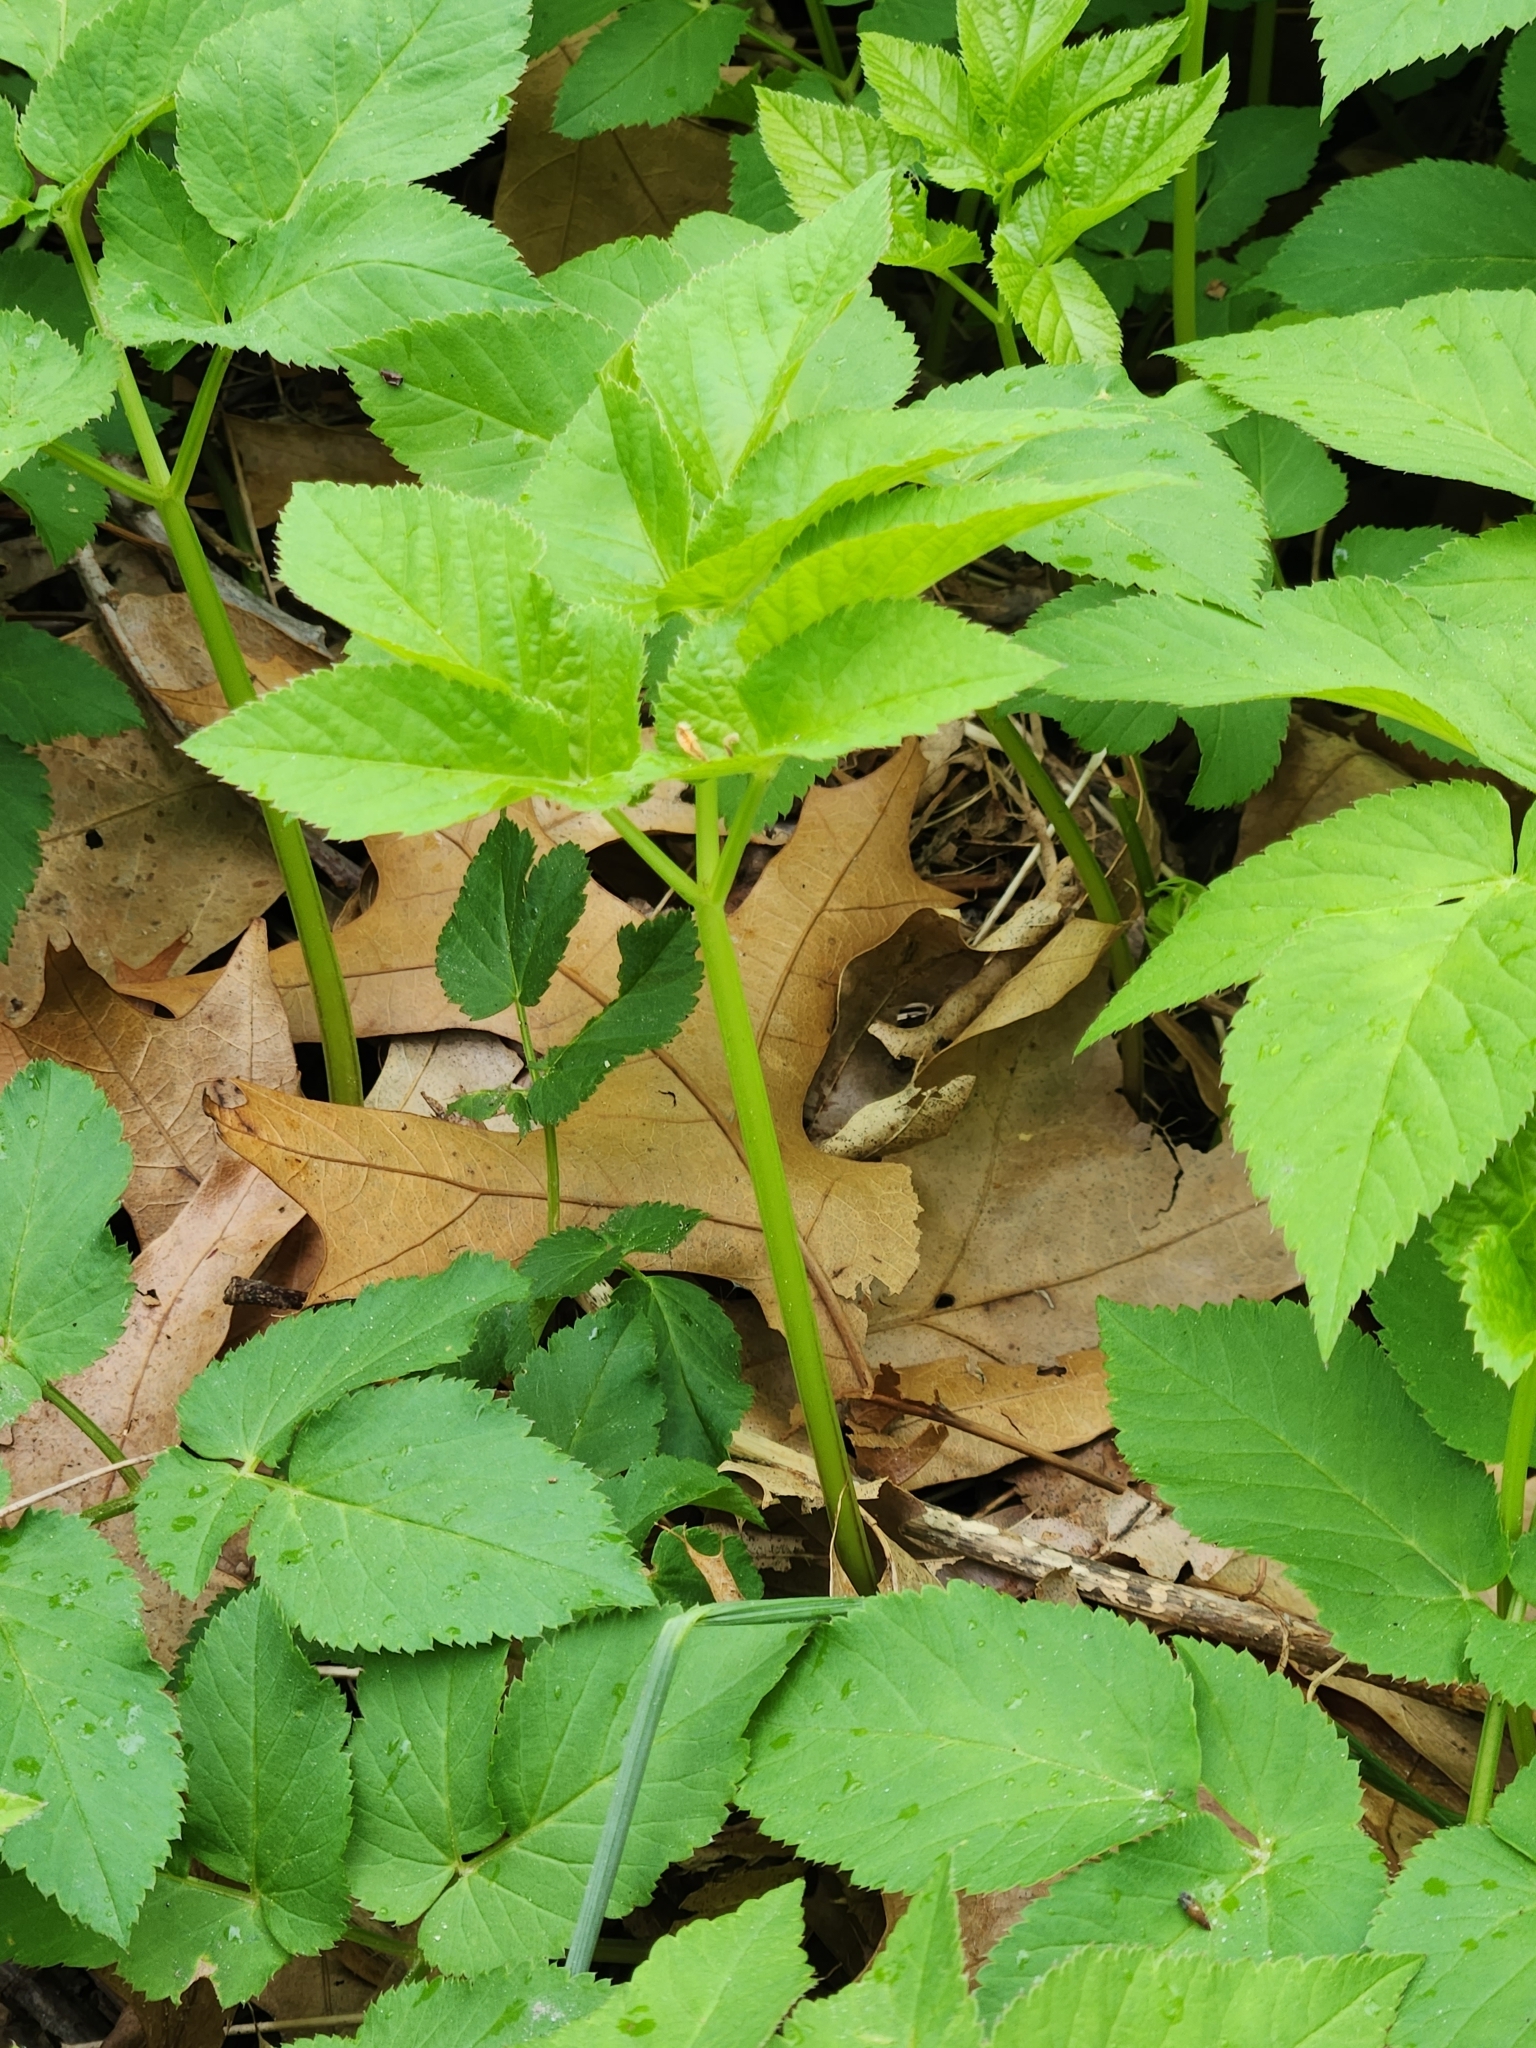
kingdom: Plantae
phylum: Tracheophyta
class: Magnoliopsida
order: Apiales
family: Apiaceae
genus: Aegopodium
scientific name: Aegopodium podagraria
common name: Ground-elder
